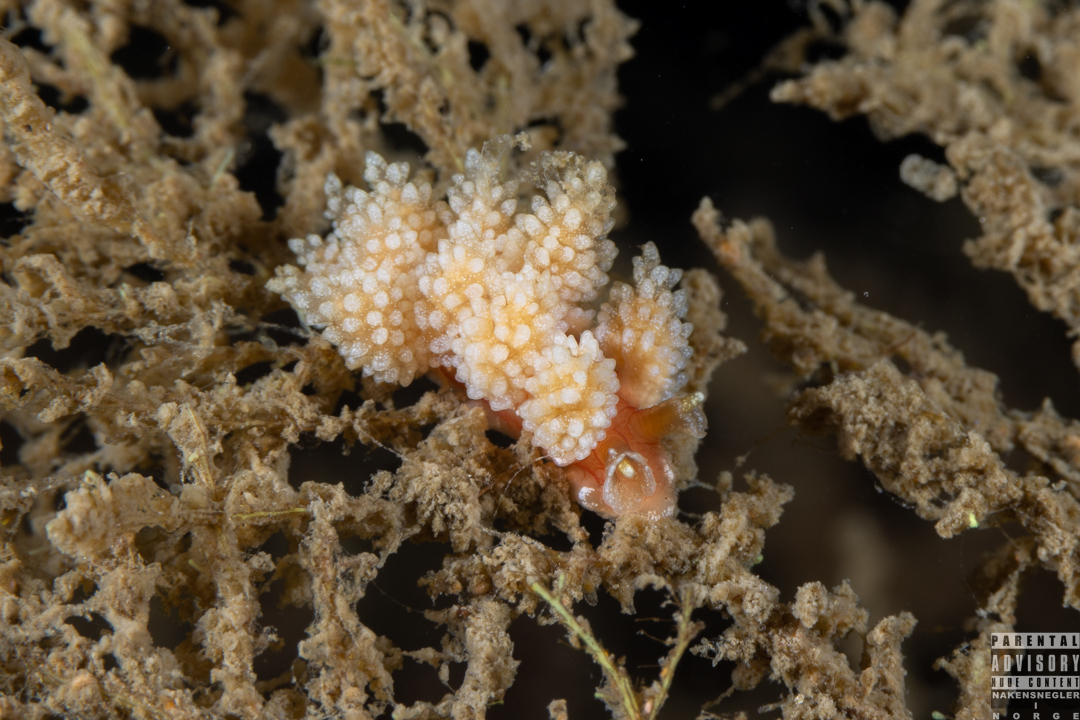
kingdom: Animalia
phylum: Mollusca
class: Gastropoda
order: Nudibranchia
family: Dotidae
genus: Doto
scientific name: Doto fragilis
